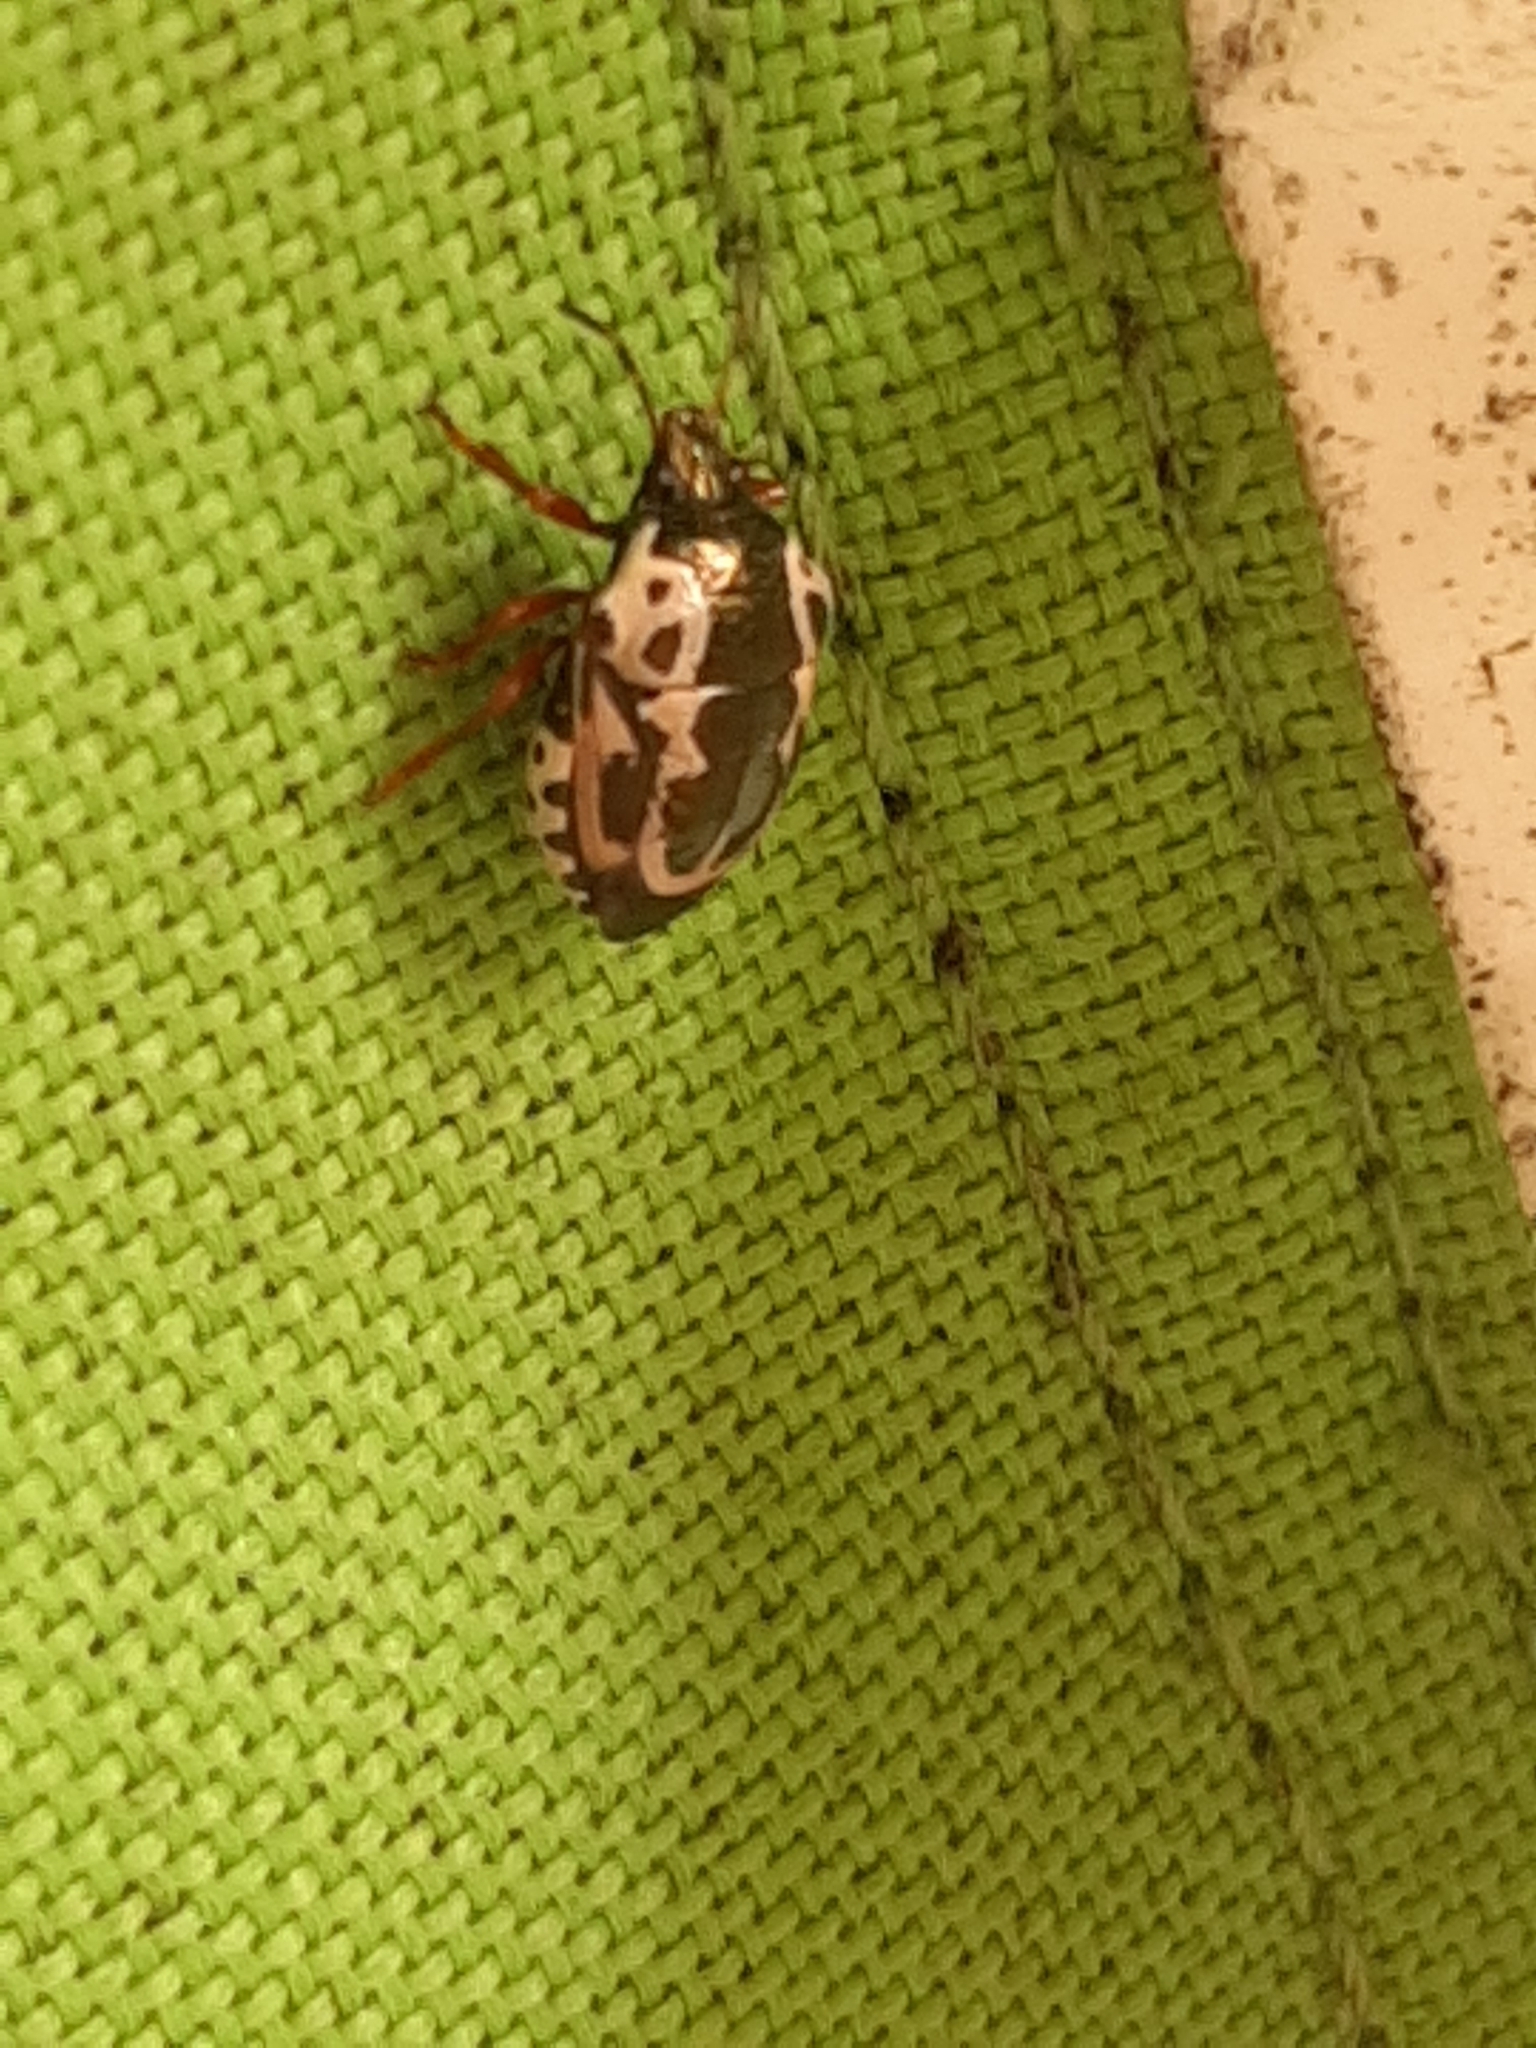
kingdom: Animalia
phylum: Arthropoda
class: Insecta
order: Hemiptera
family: Pentatomidae
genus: Stiretrus
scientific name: Stiretrus anchorago
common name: Anchor stink bug
